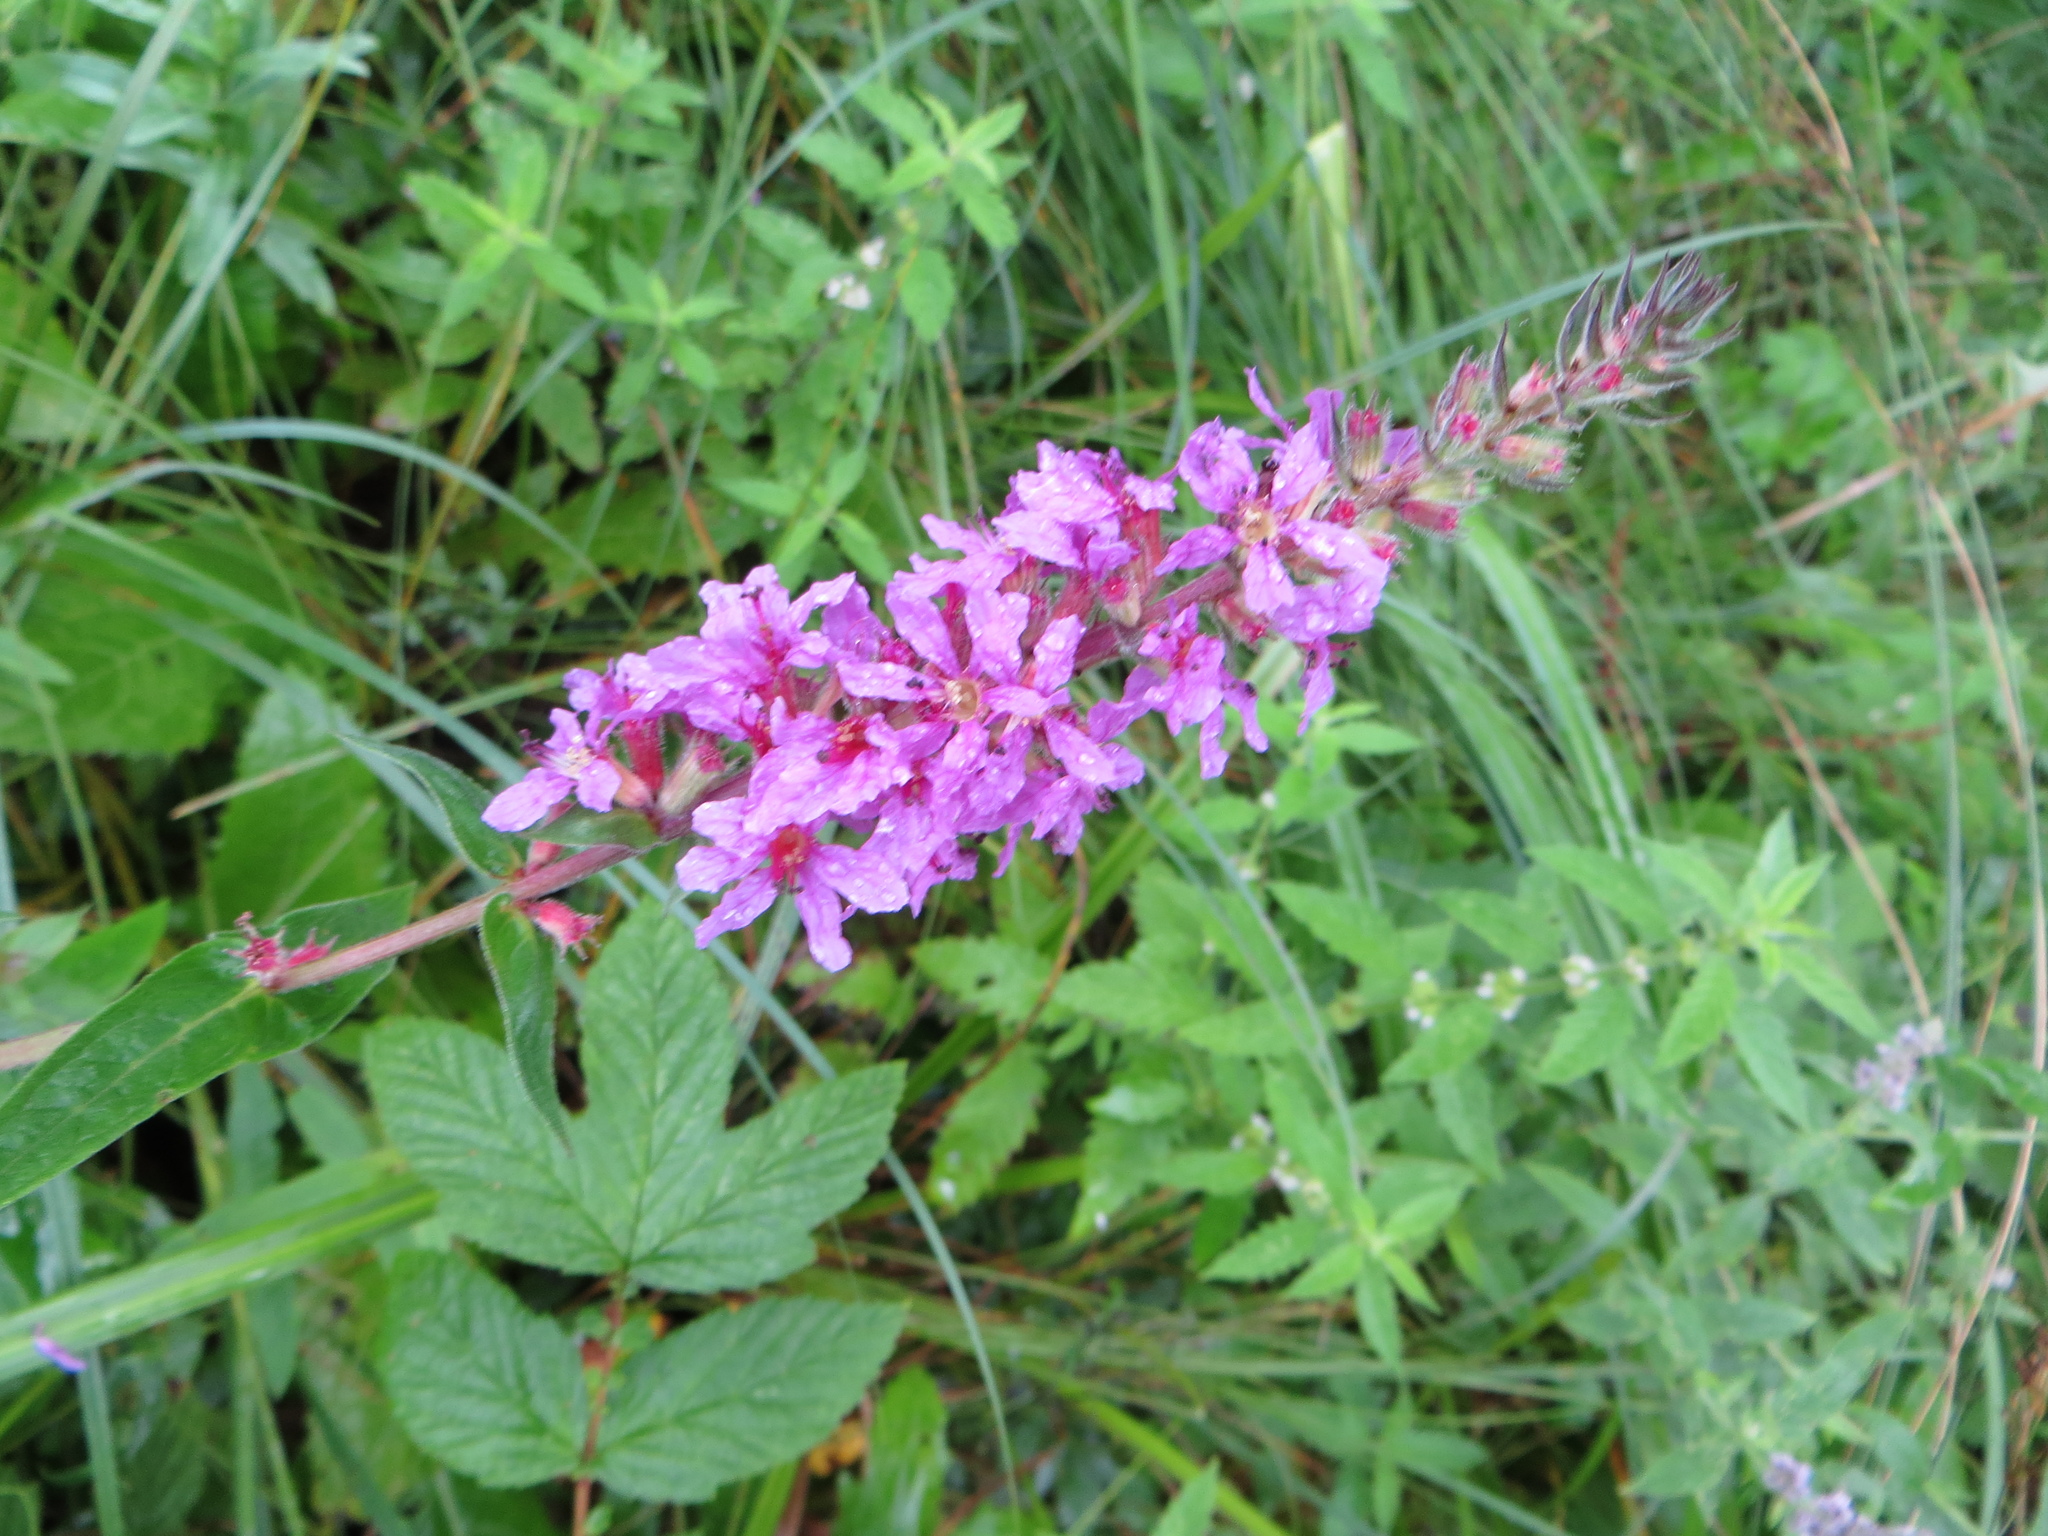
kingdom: Plantae
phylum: Tracheophyta
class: Magnoliopsida
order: Myrtales
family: Lythraceae
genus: Lythrum
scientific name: Lythrum salicaria
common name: Purple loosestrife
